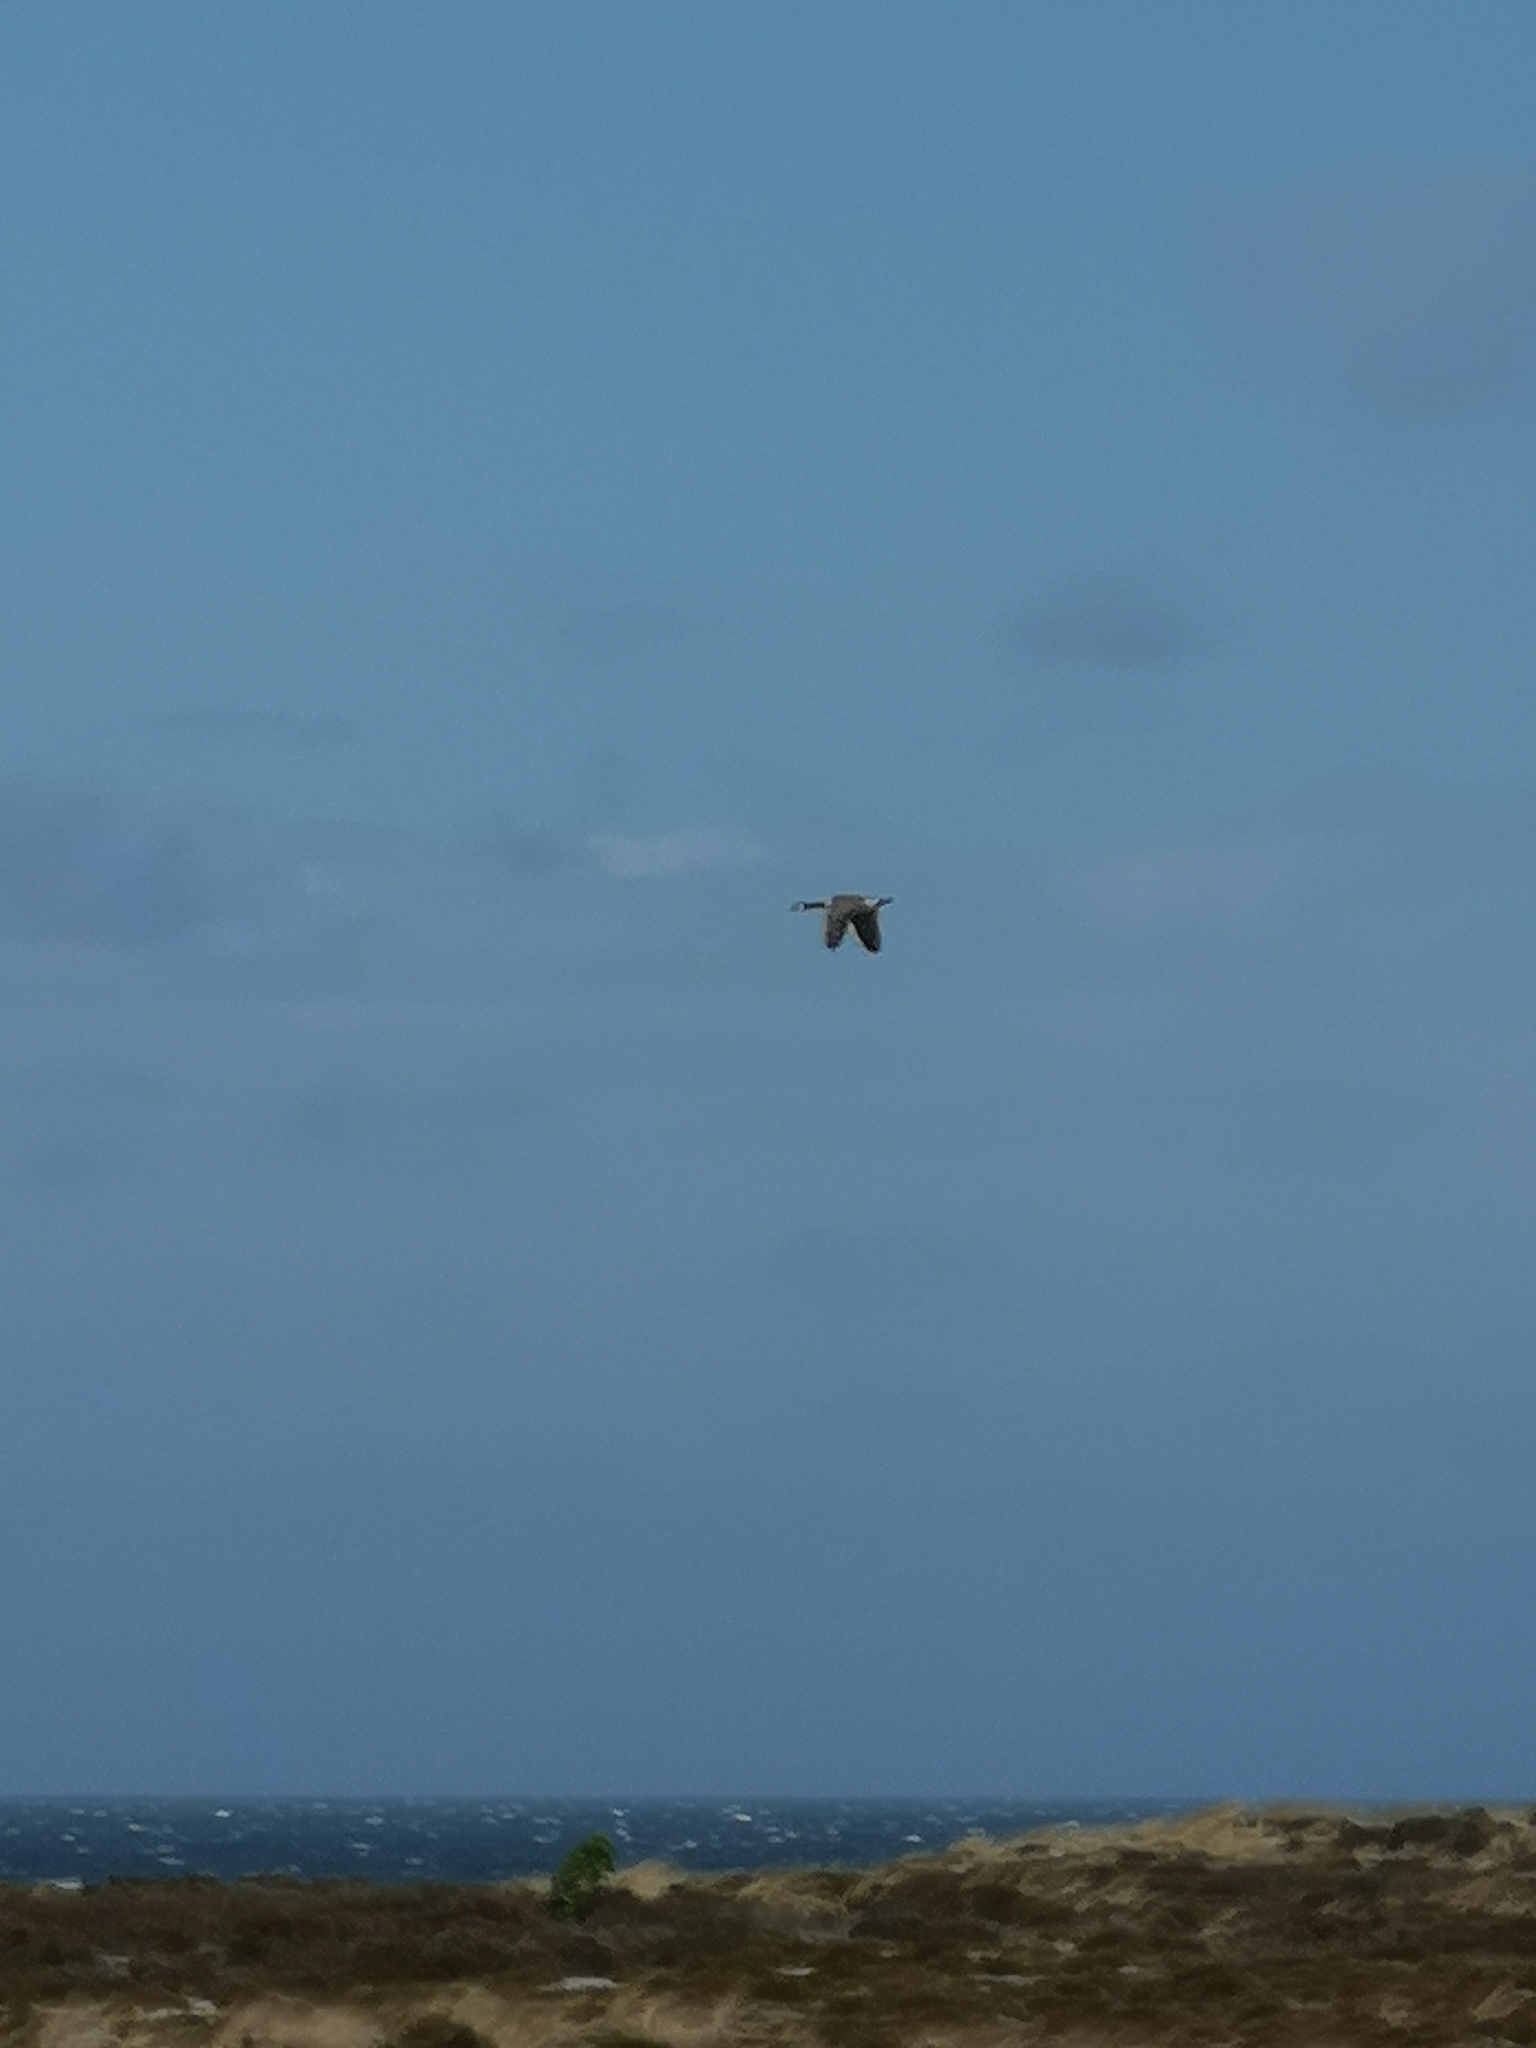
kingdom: Animalia
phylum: Chordata
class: Aves
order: Anseriformes
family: Anatidae
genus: Branta
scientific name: Branta canadensis
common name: Canada goose
